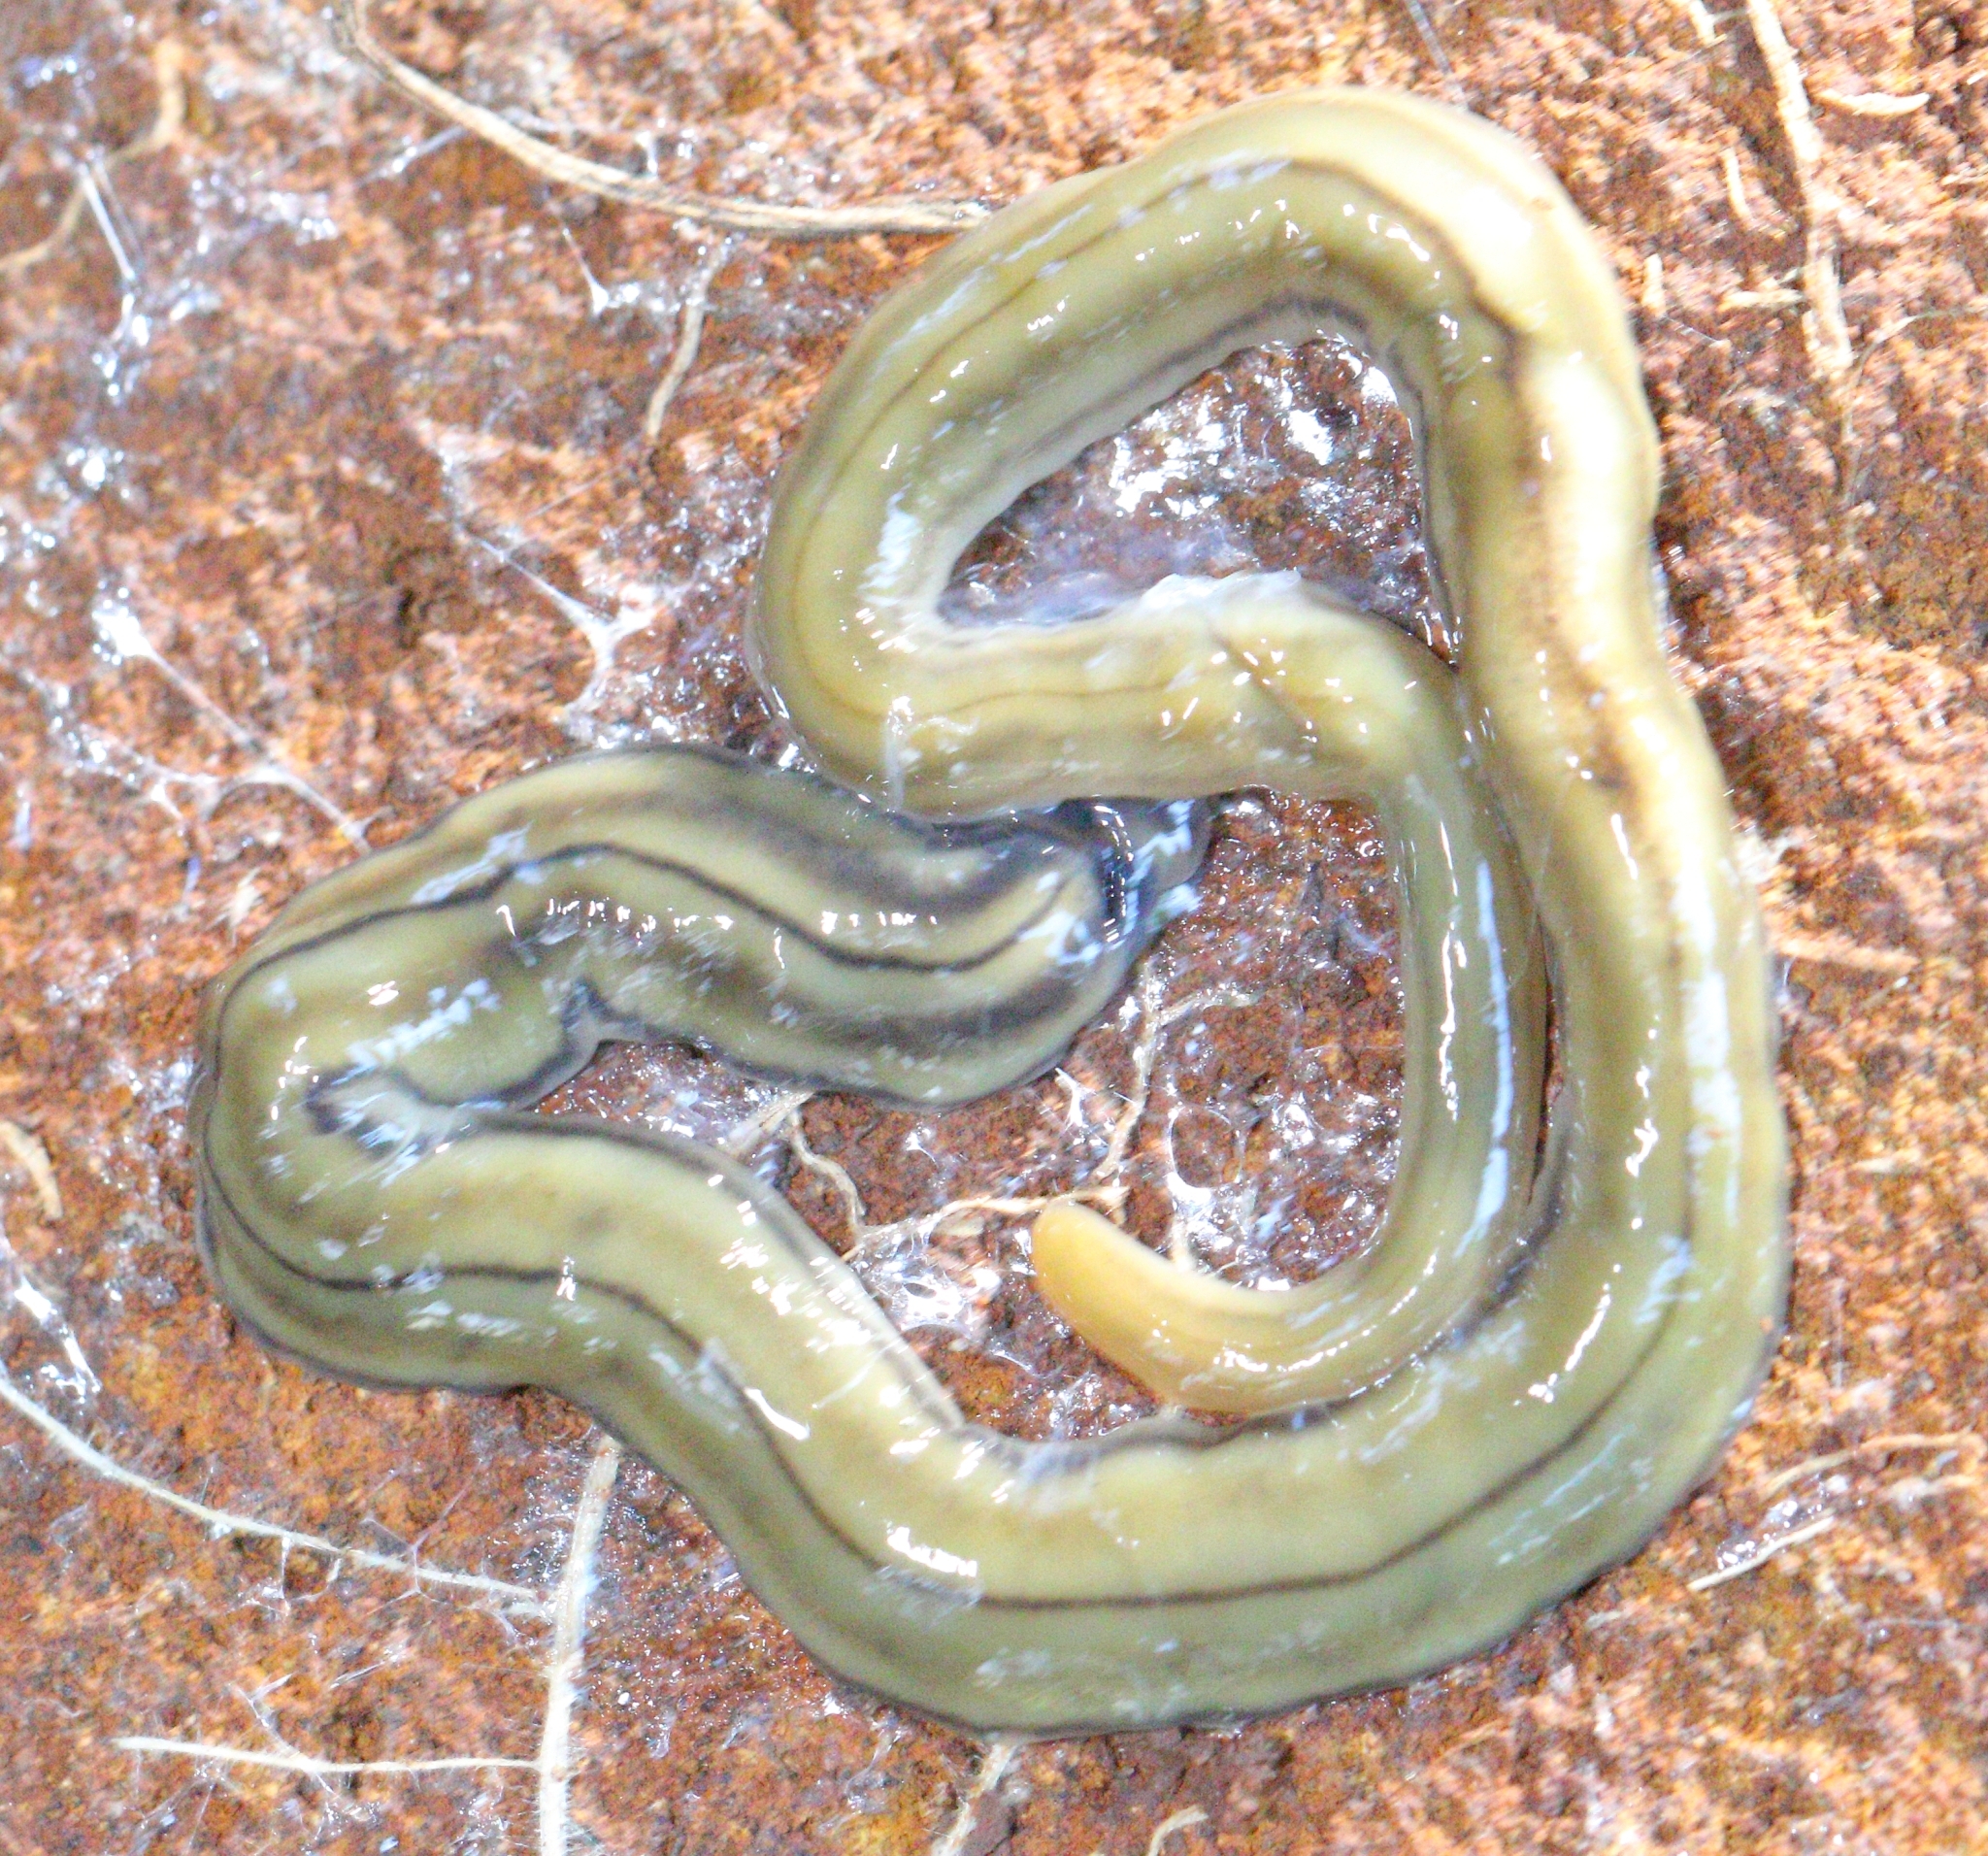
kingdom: Animalia
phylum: Platyhelminthes
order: Tricladida
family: Geoplanidae
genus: Bipalium
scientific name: Bipalium kewense
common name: Hammerhead flatworm
